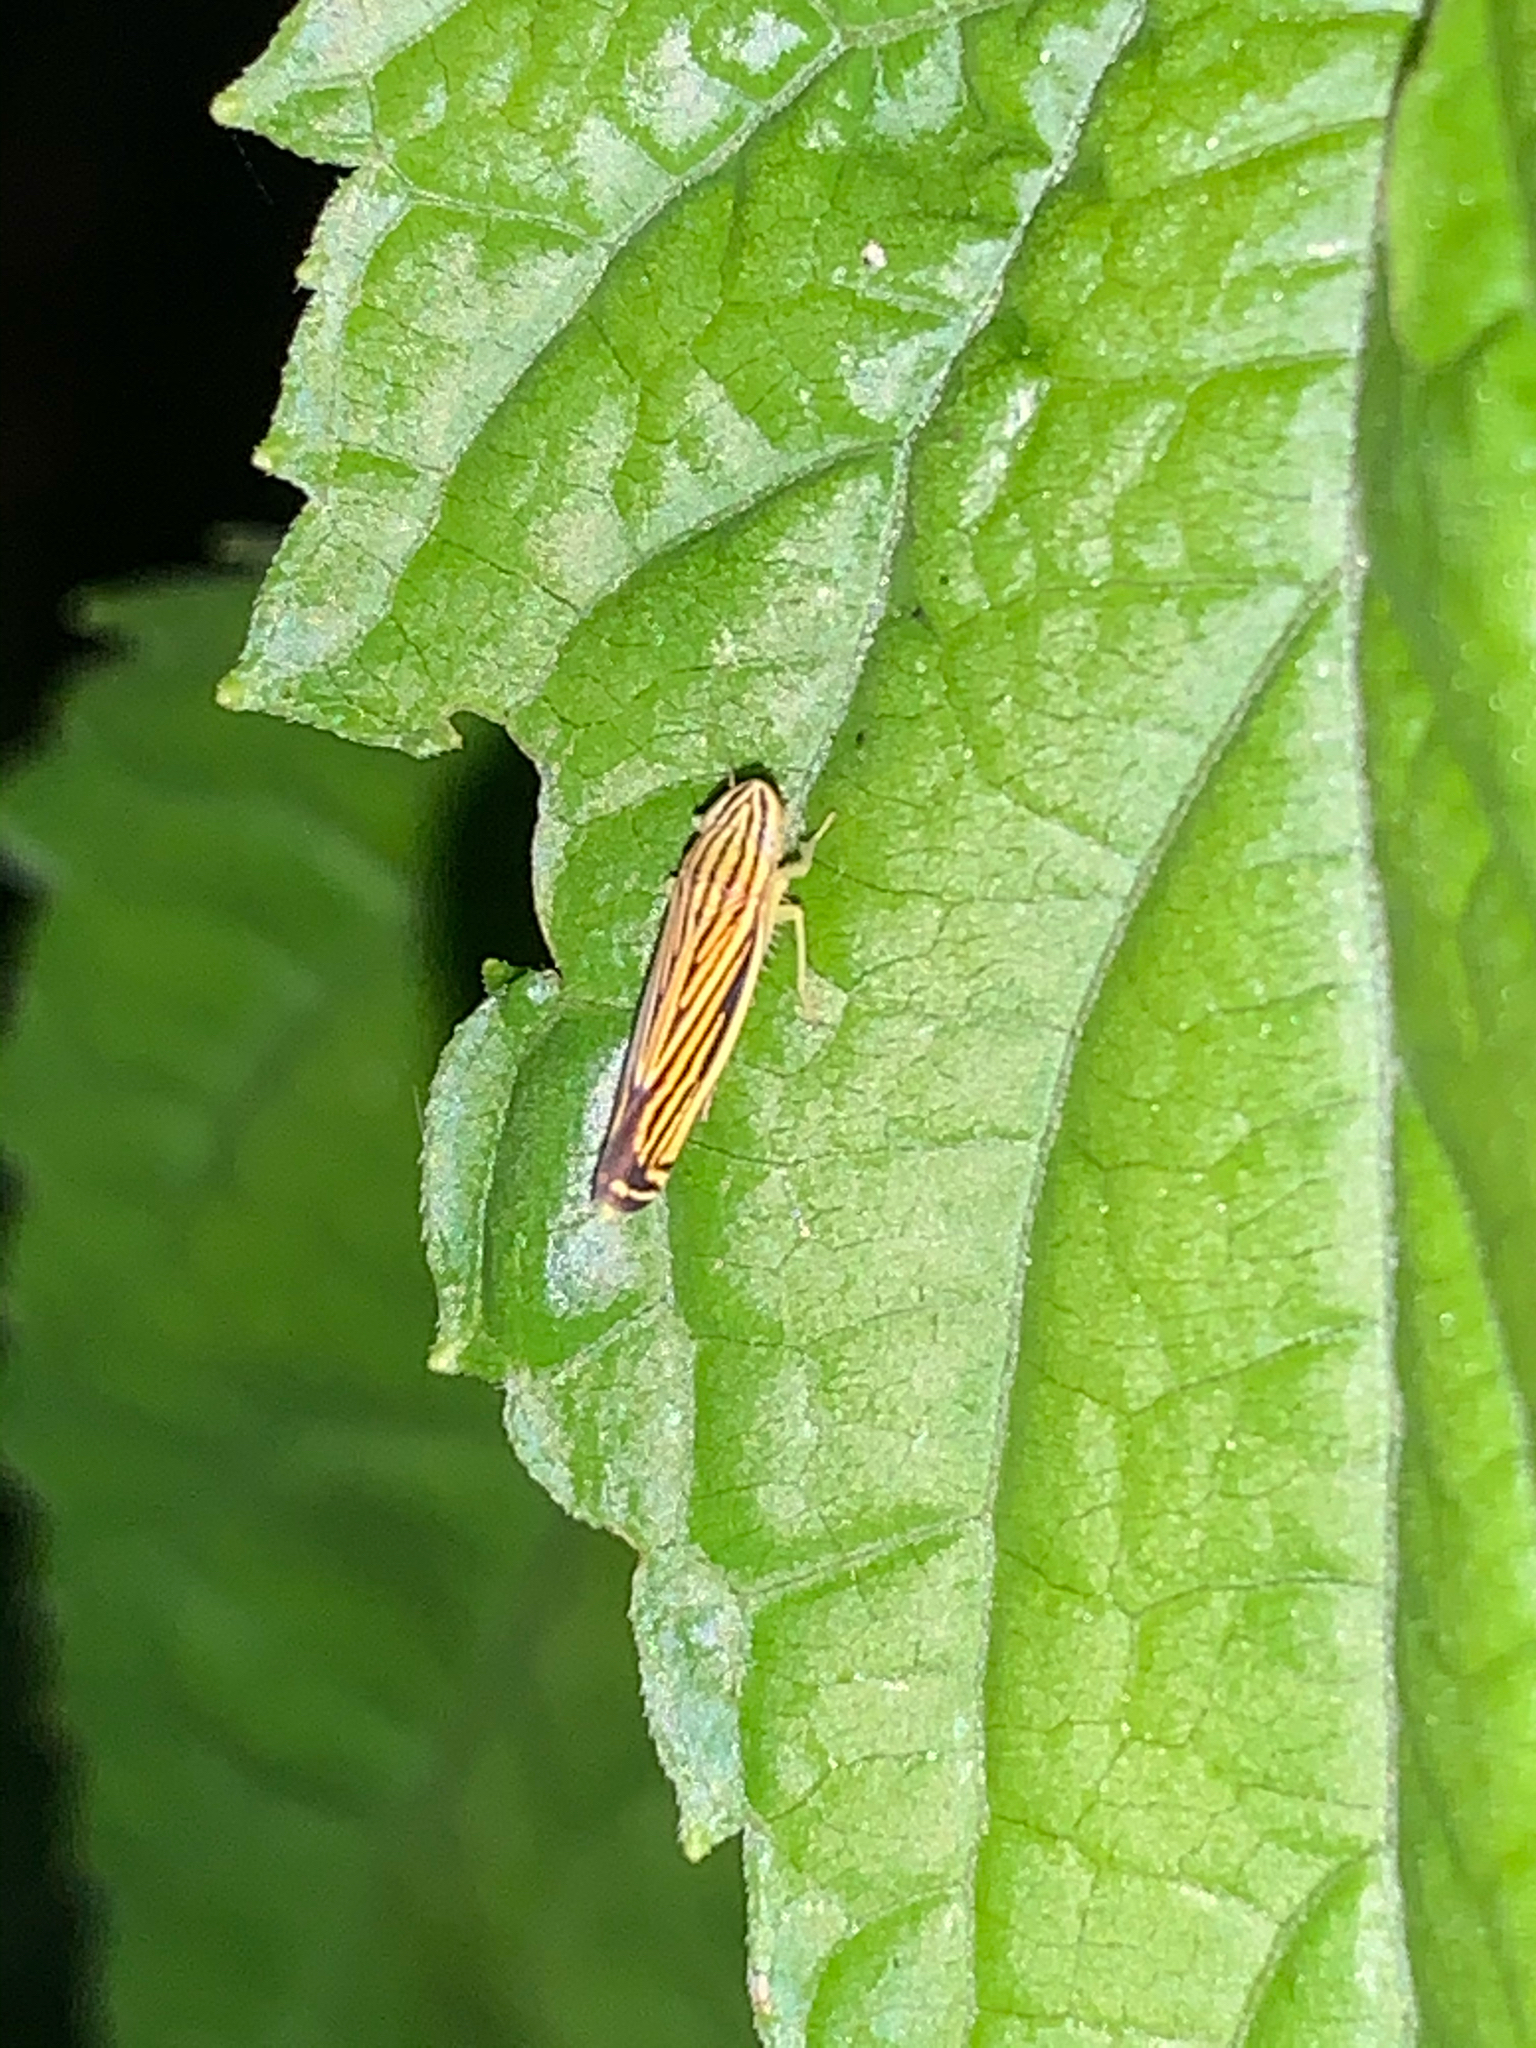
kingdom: Animalia
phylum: Arthropoda
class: Insecta
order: Hemiptera
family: Cicadellidae
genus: Sibovia
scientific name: Sibovia occatoria
